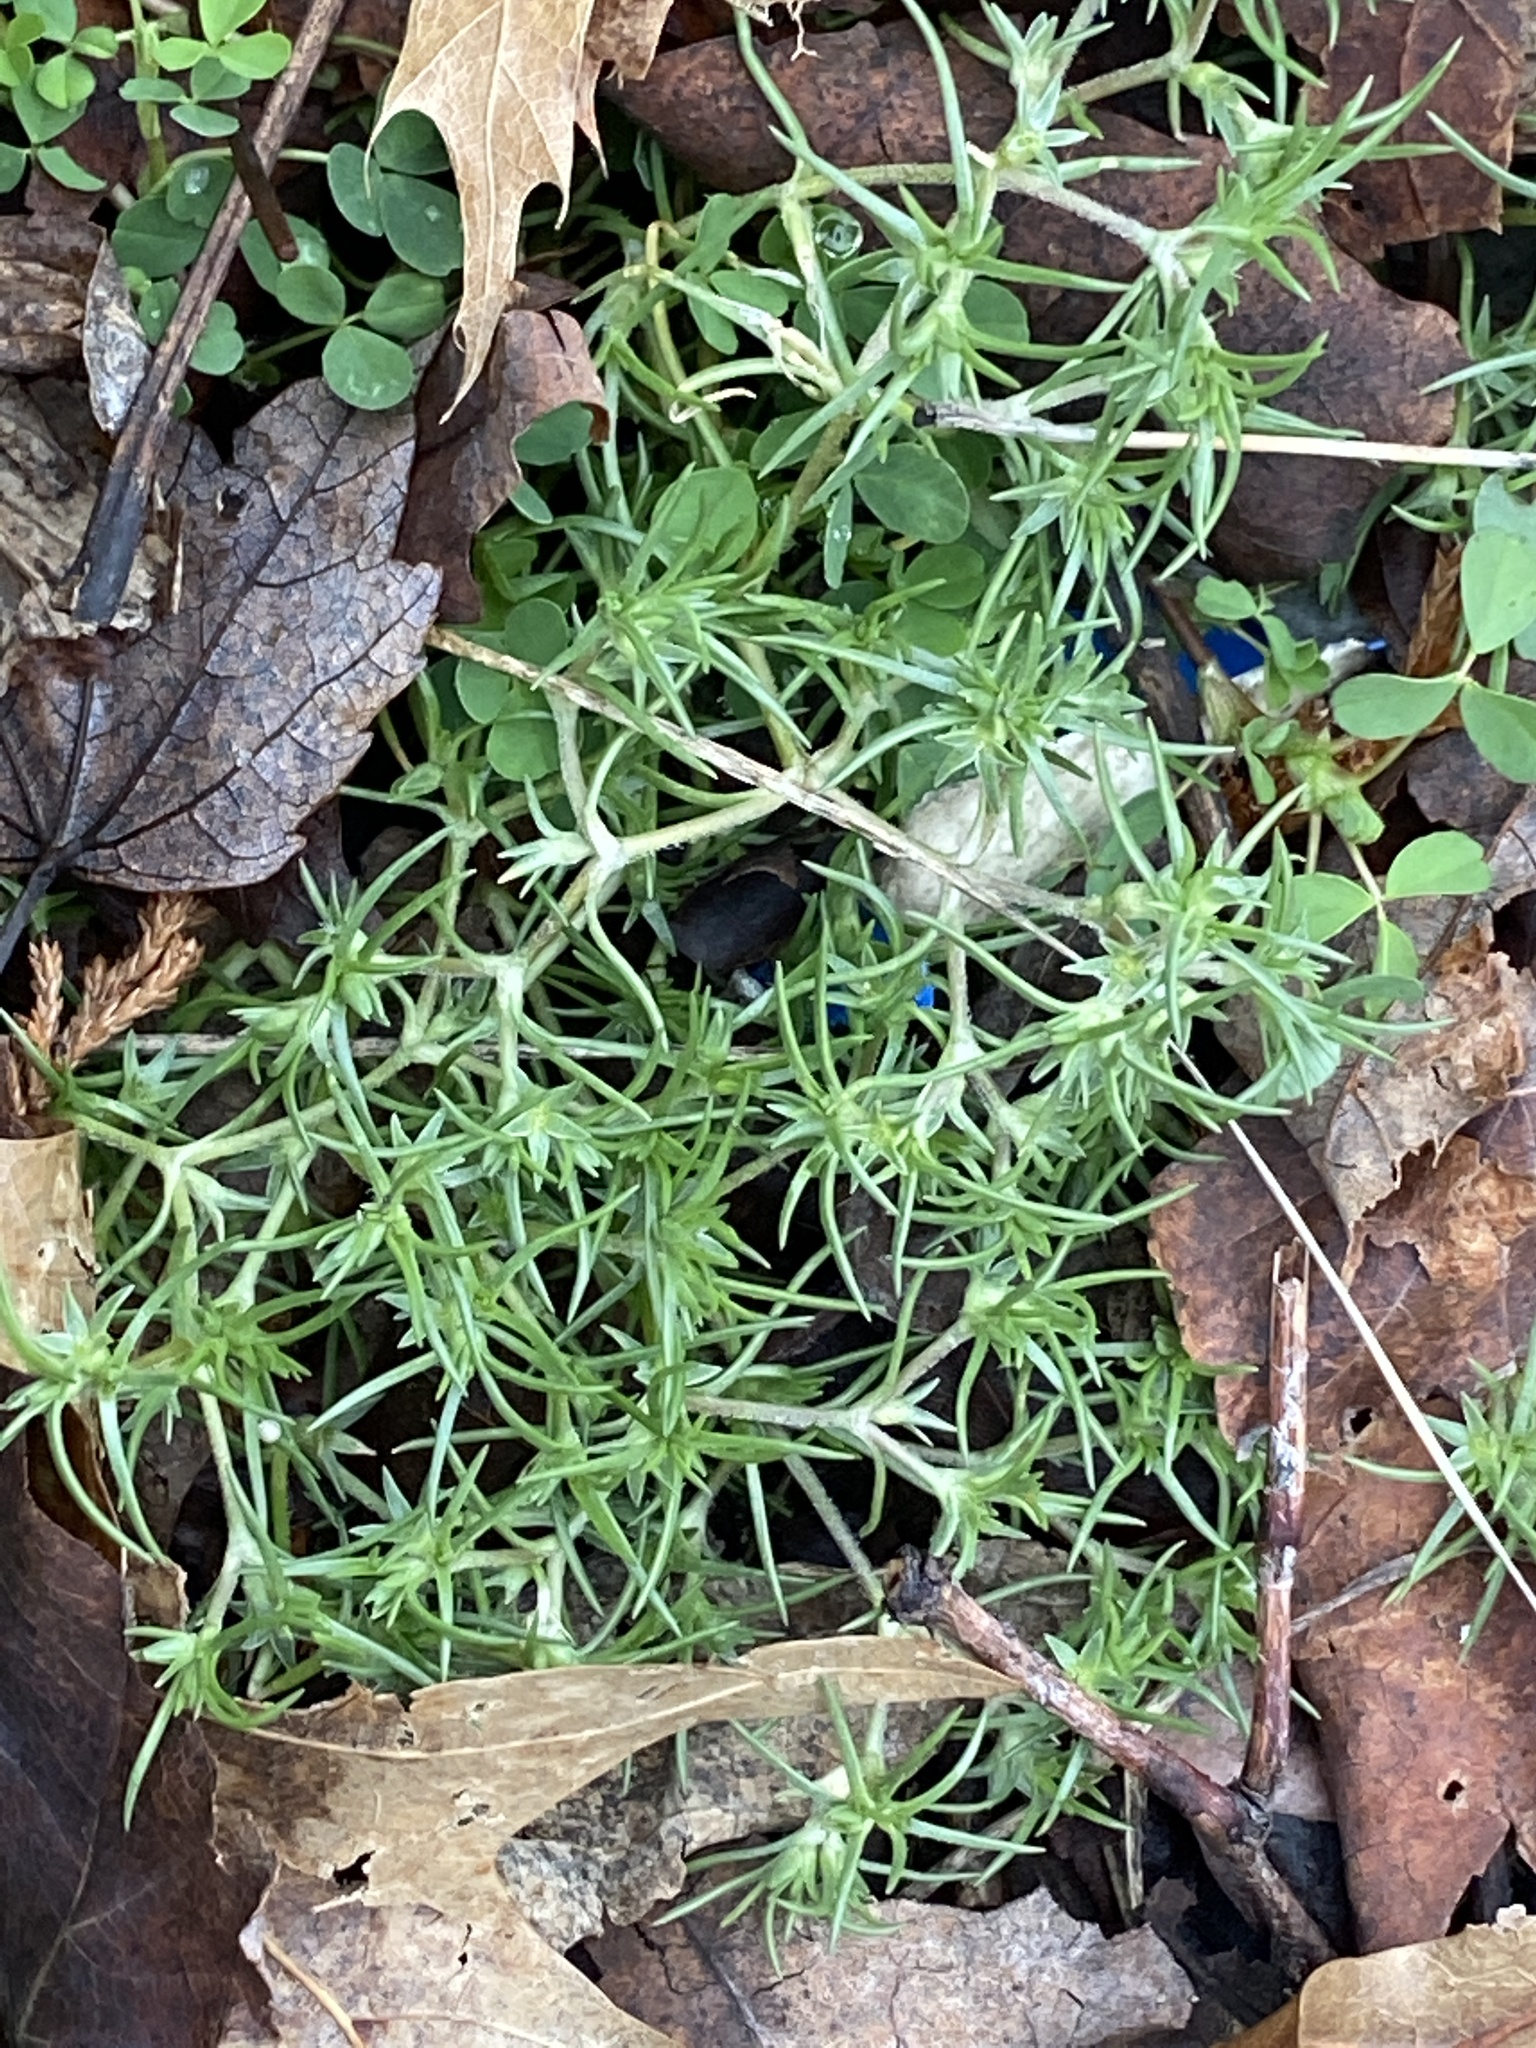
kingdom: Plantae
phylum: Tracheophyta
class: Magnoliopsida
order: Caryophyllales
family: Caryophyllaceae
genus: Scleranthus
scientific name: Scleranthus annuus
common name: Annual knawel
